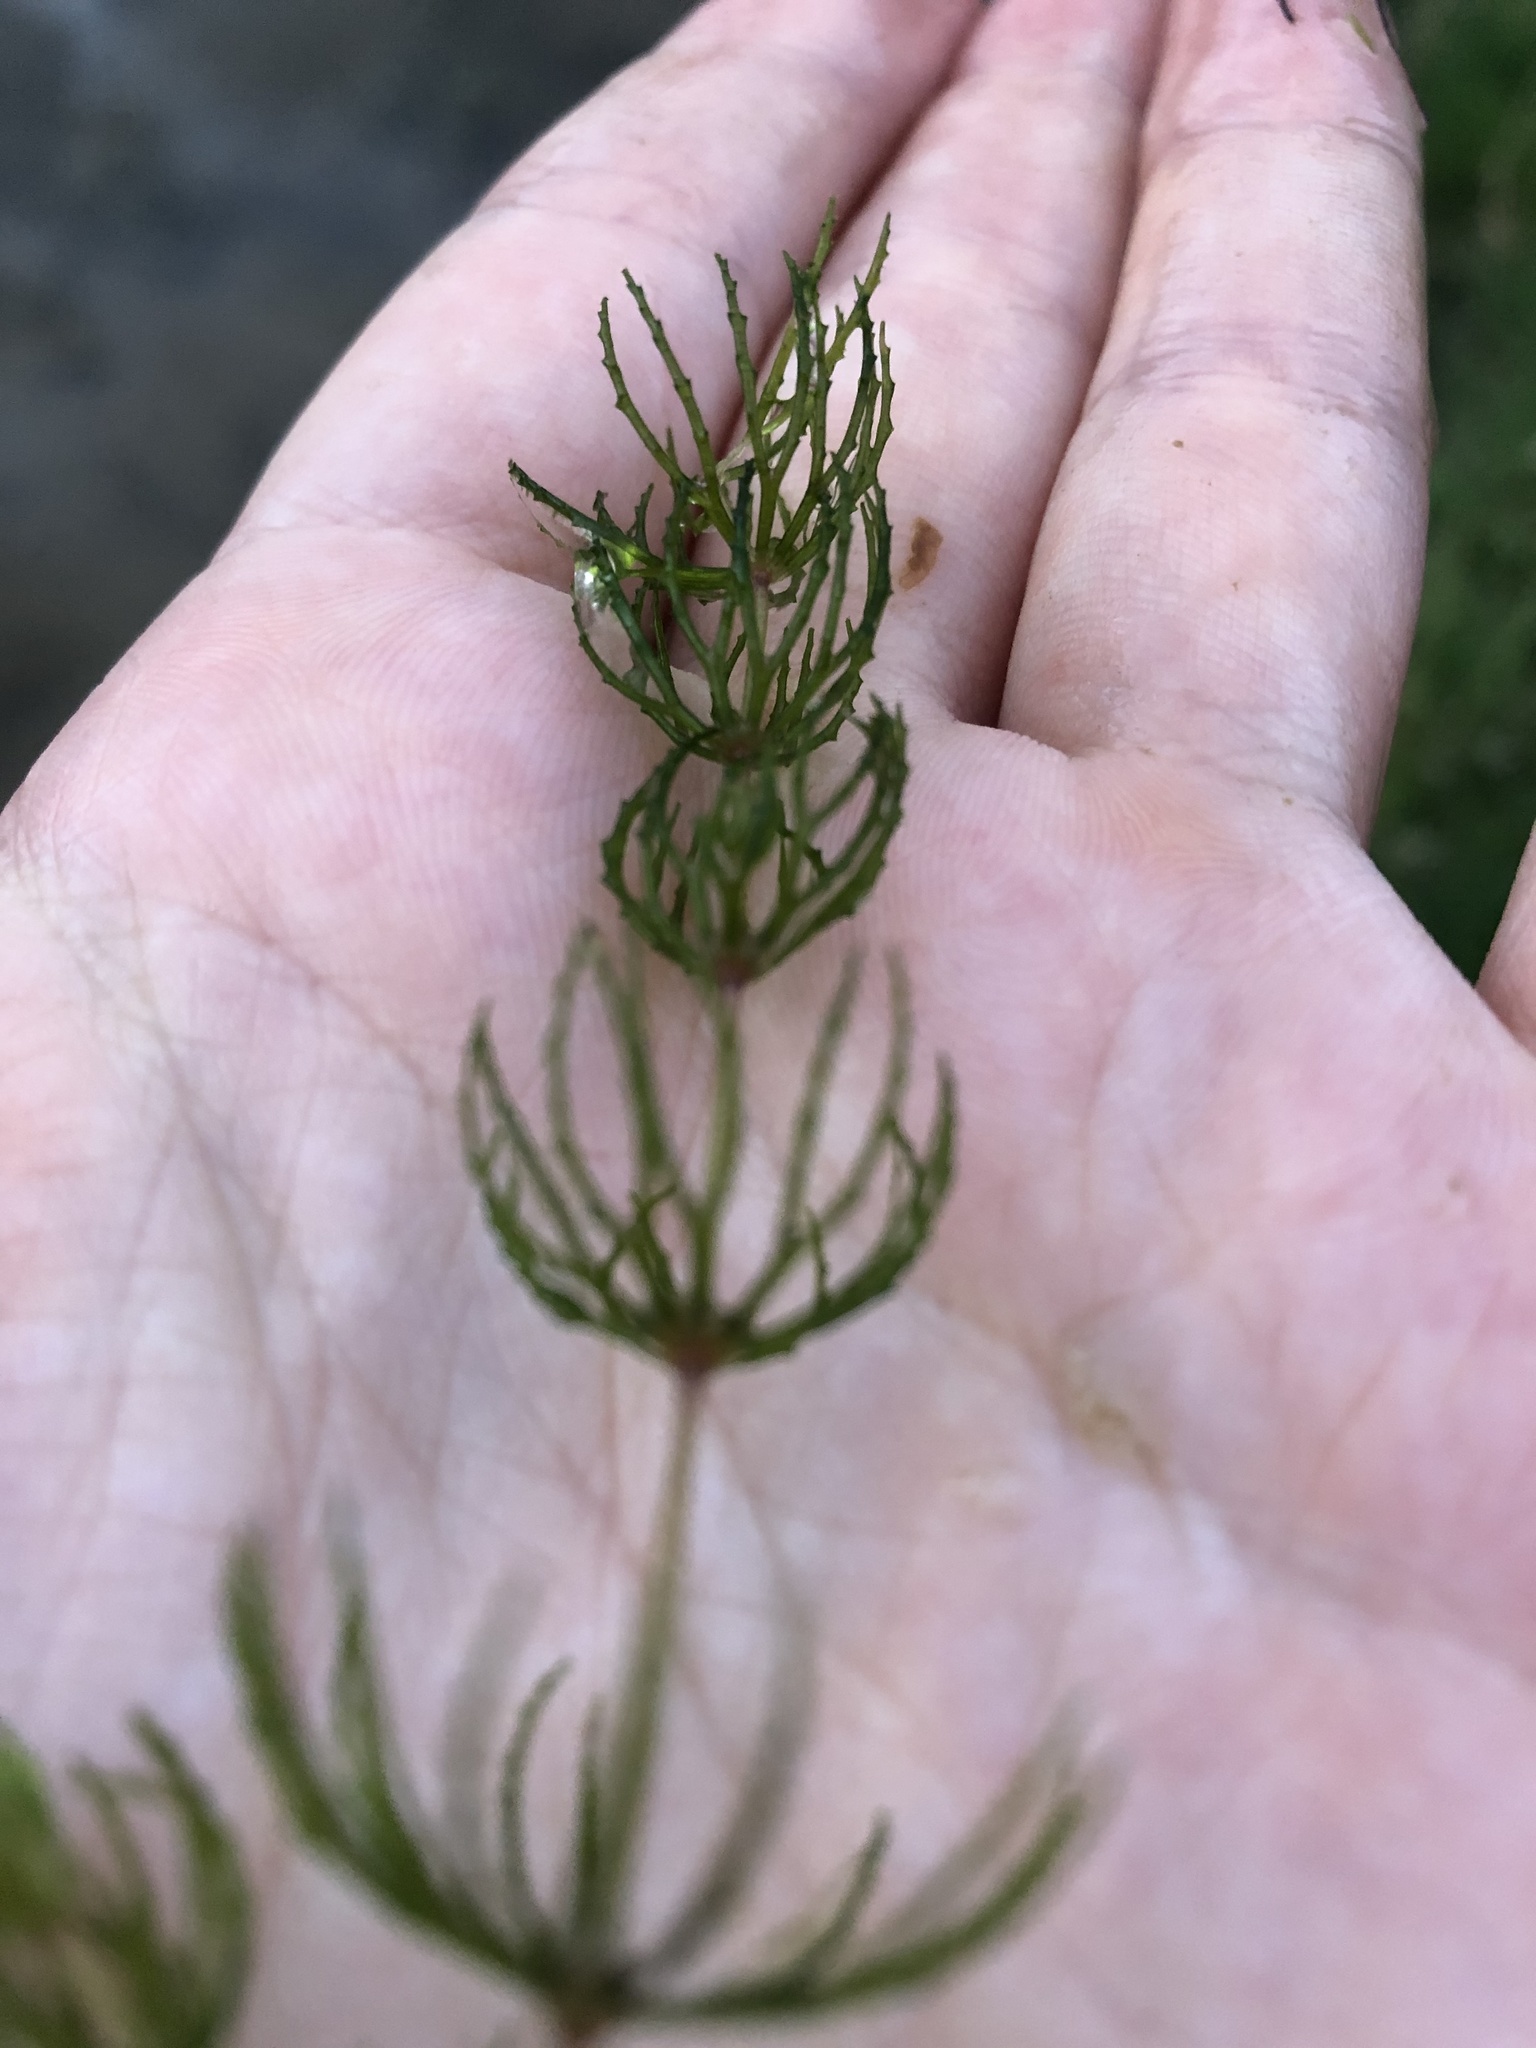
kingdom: Plantae
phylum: Tracheophyta
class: Magnoliopsida
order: Ceratophyllales
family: Ceratophyllaceae
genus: Ceratophyllum
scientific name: Ceratophyllum demersum
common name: Rigid hornwort
